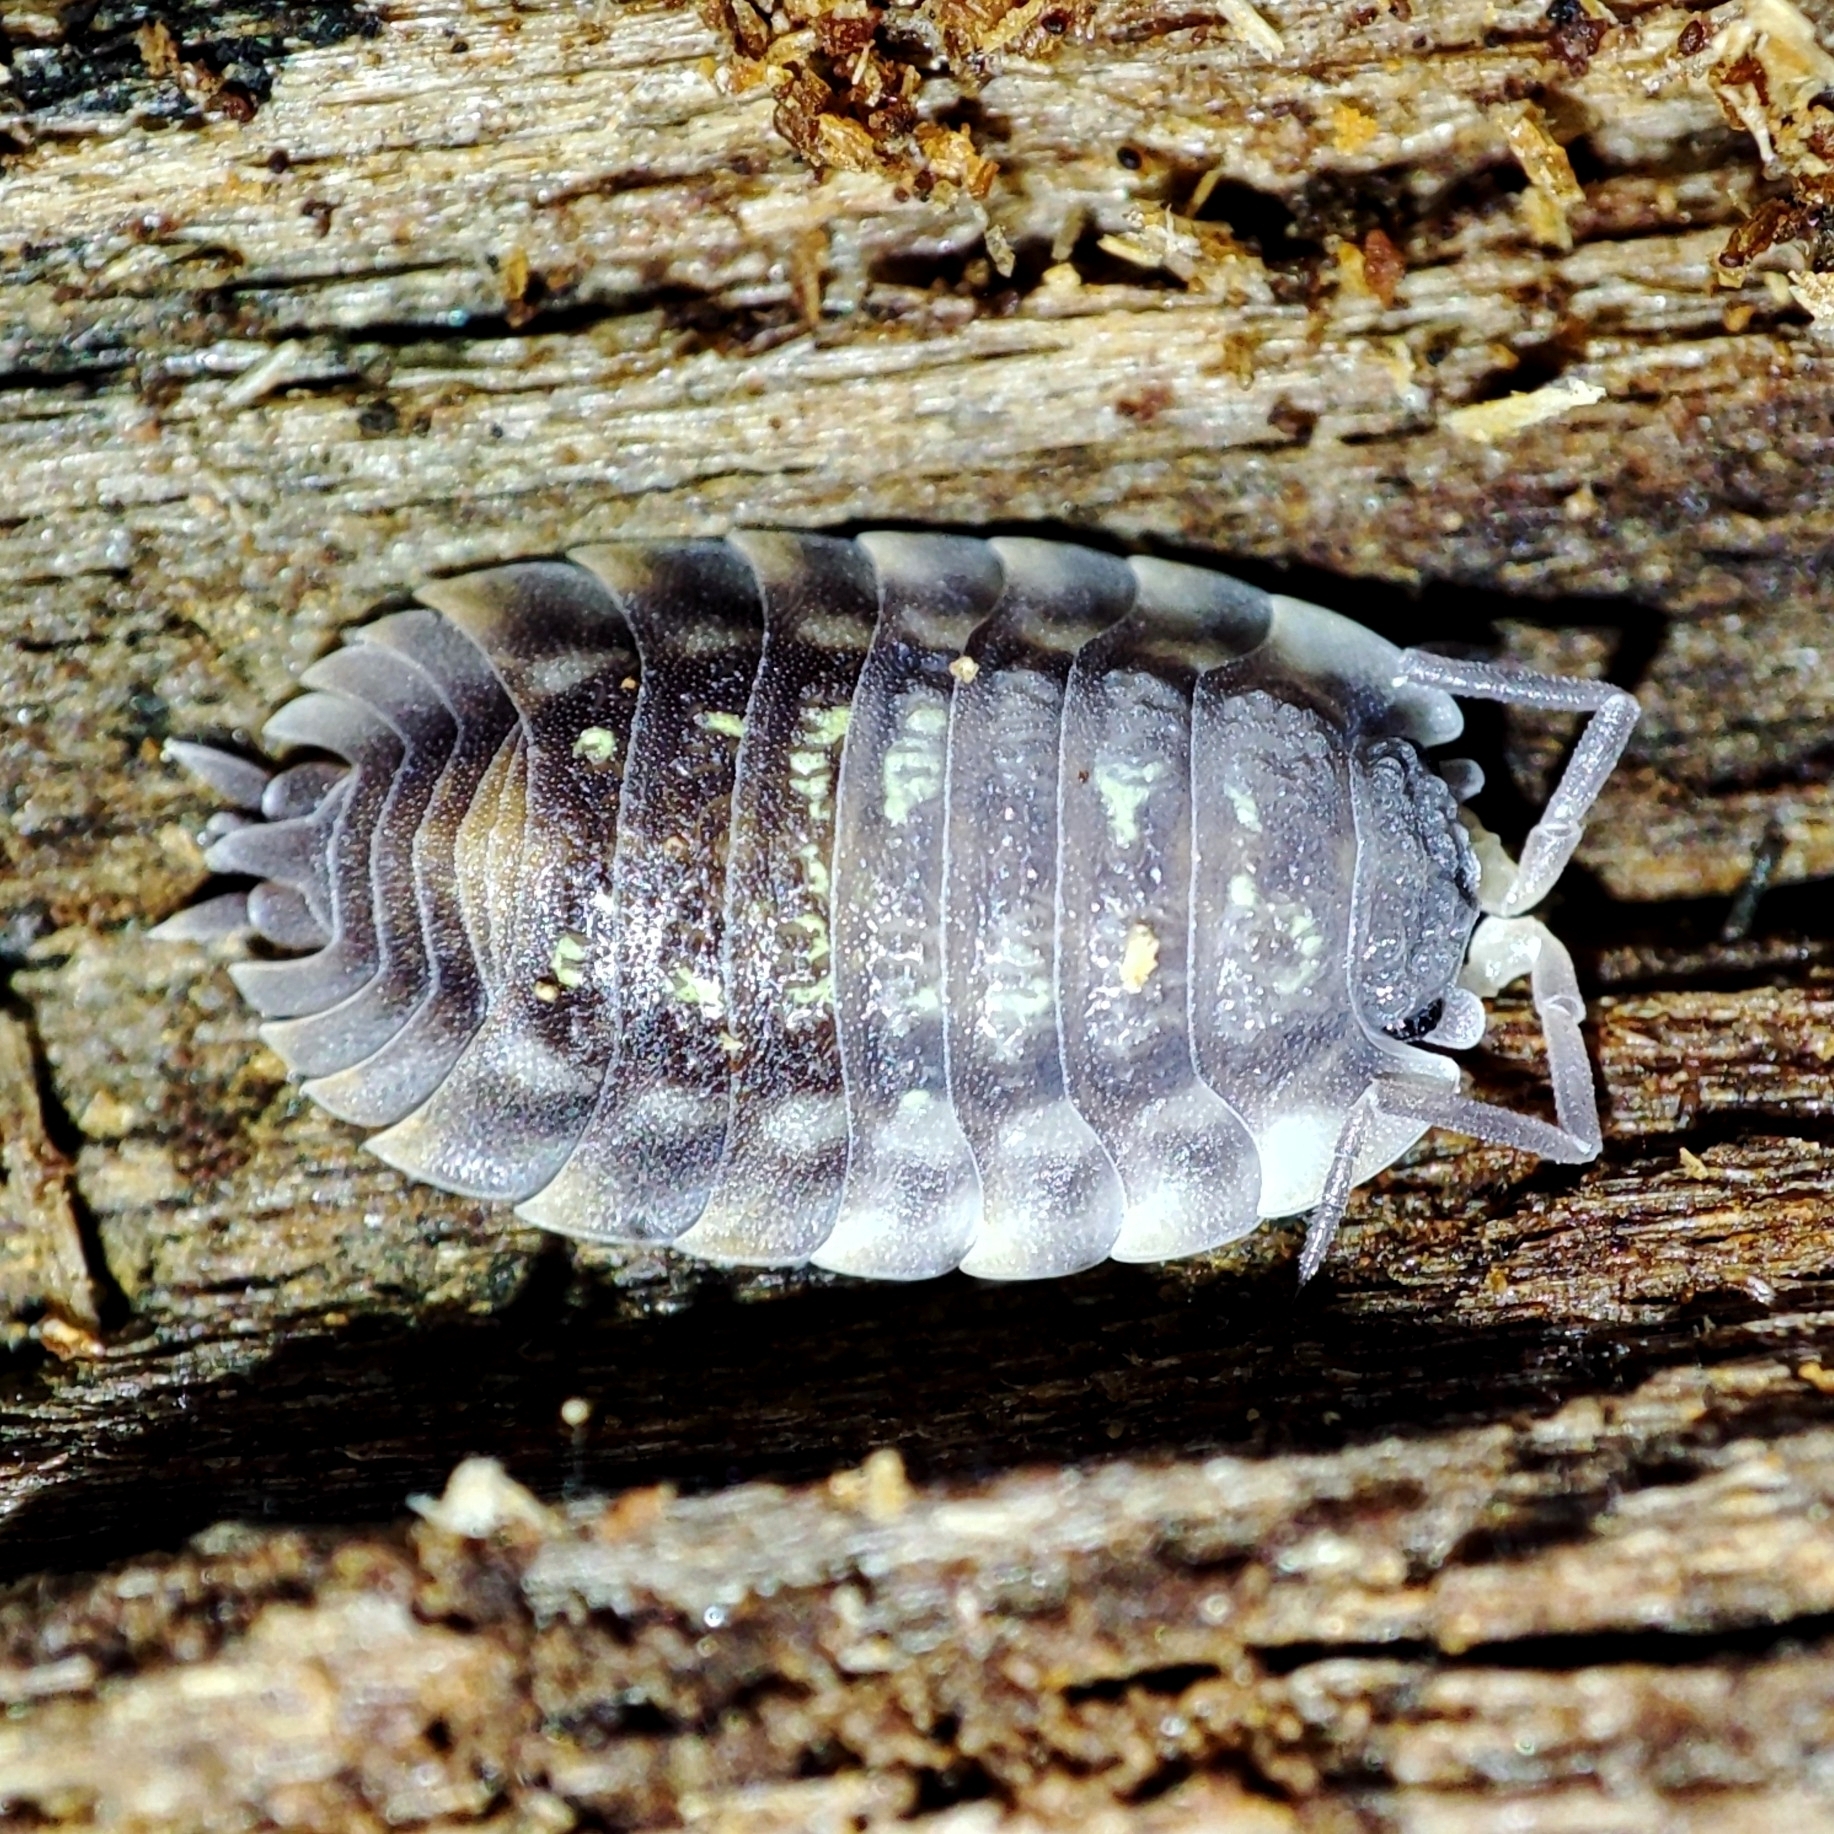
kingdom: Animalia
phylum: Arthropoda
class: Malacostraca
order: Isopoda
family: Oniscidae
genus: Oniscus
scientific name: Oniscus asellus
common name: Common shiny woodlouse
